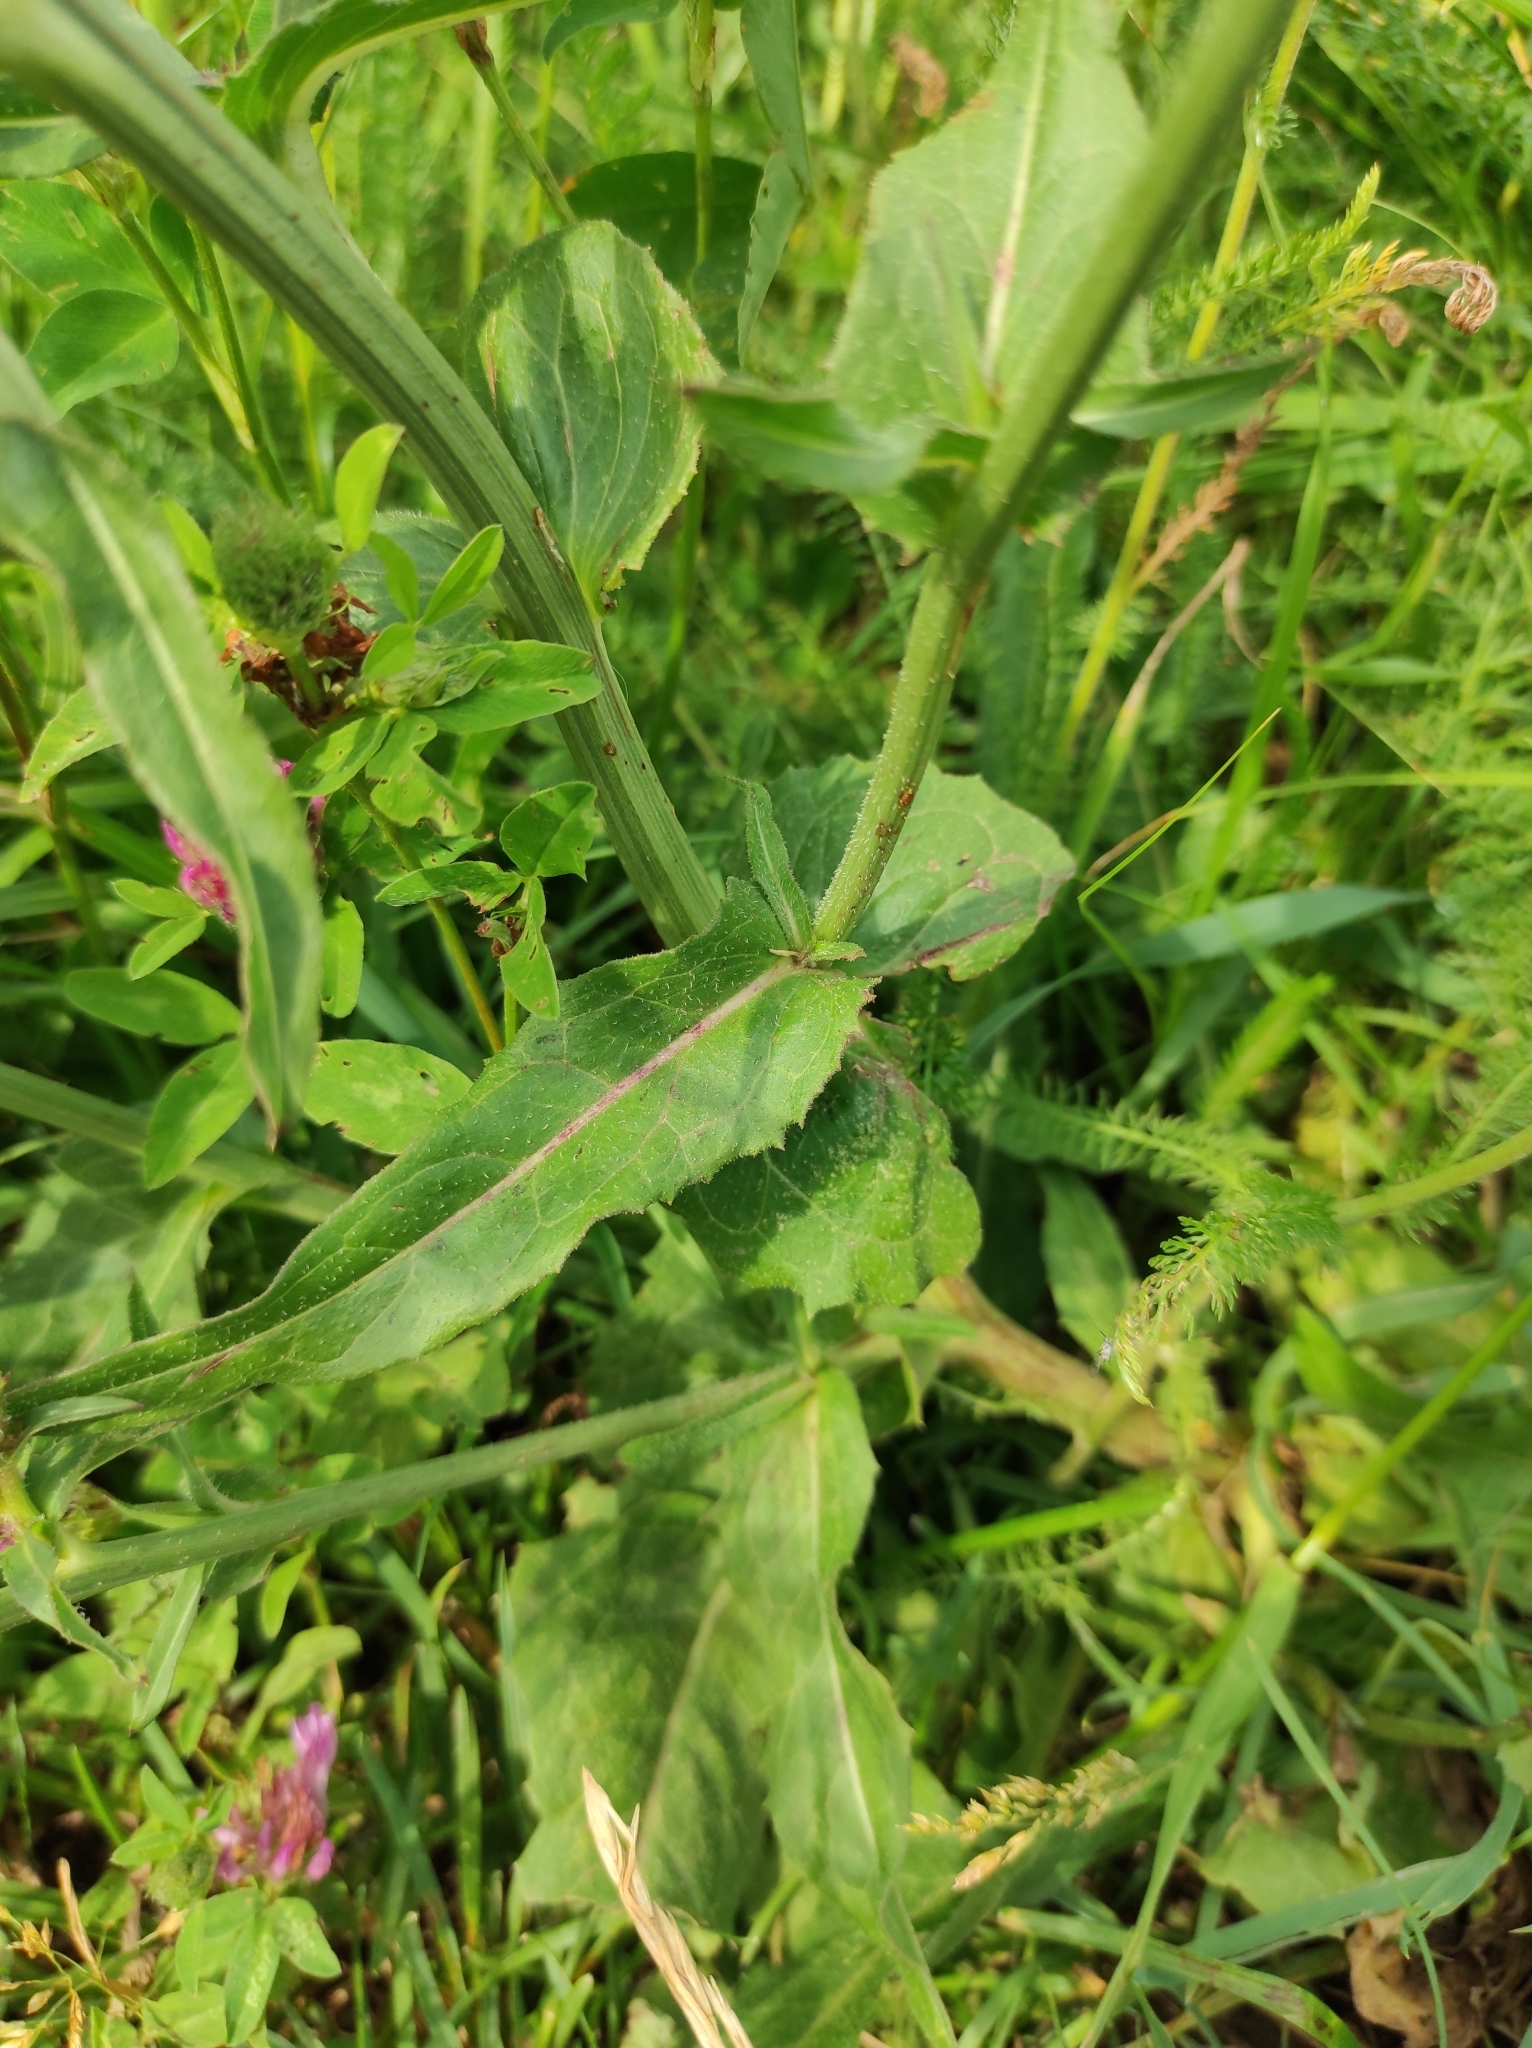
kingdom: Plantae
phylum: Tracheophyta
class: Magnoliopsida
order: Asterales
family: Asteraceae
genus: Cichorium
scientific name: Cichorium intybus
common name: Chicory
